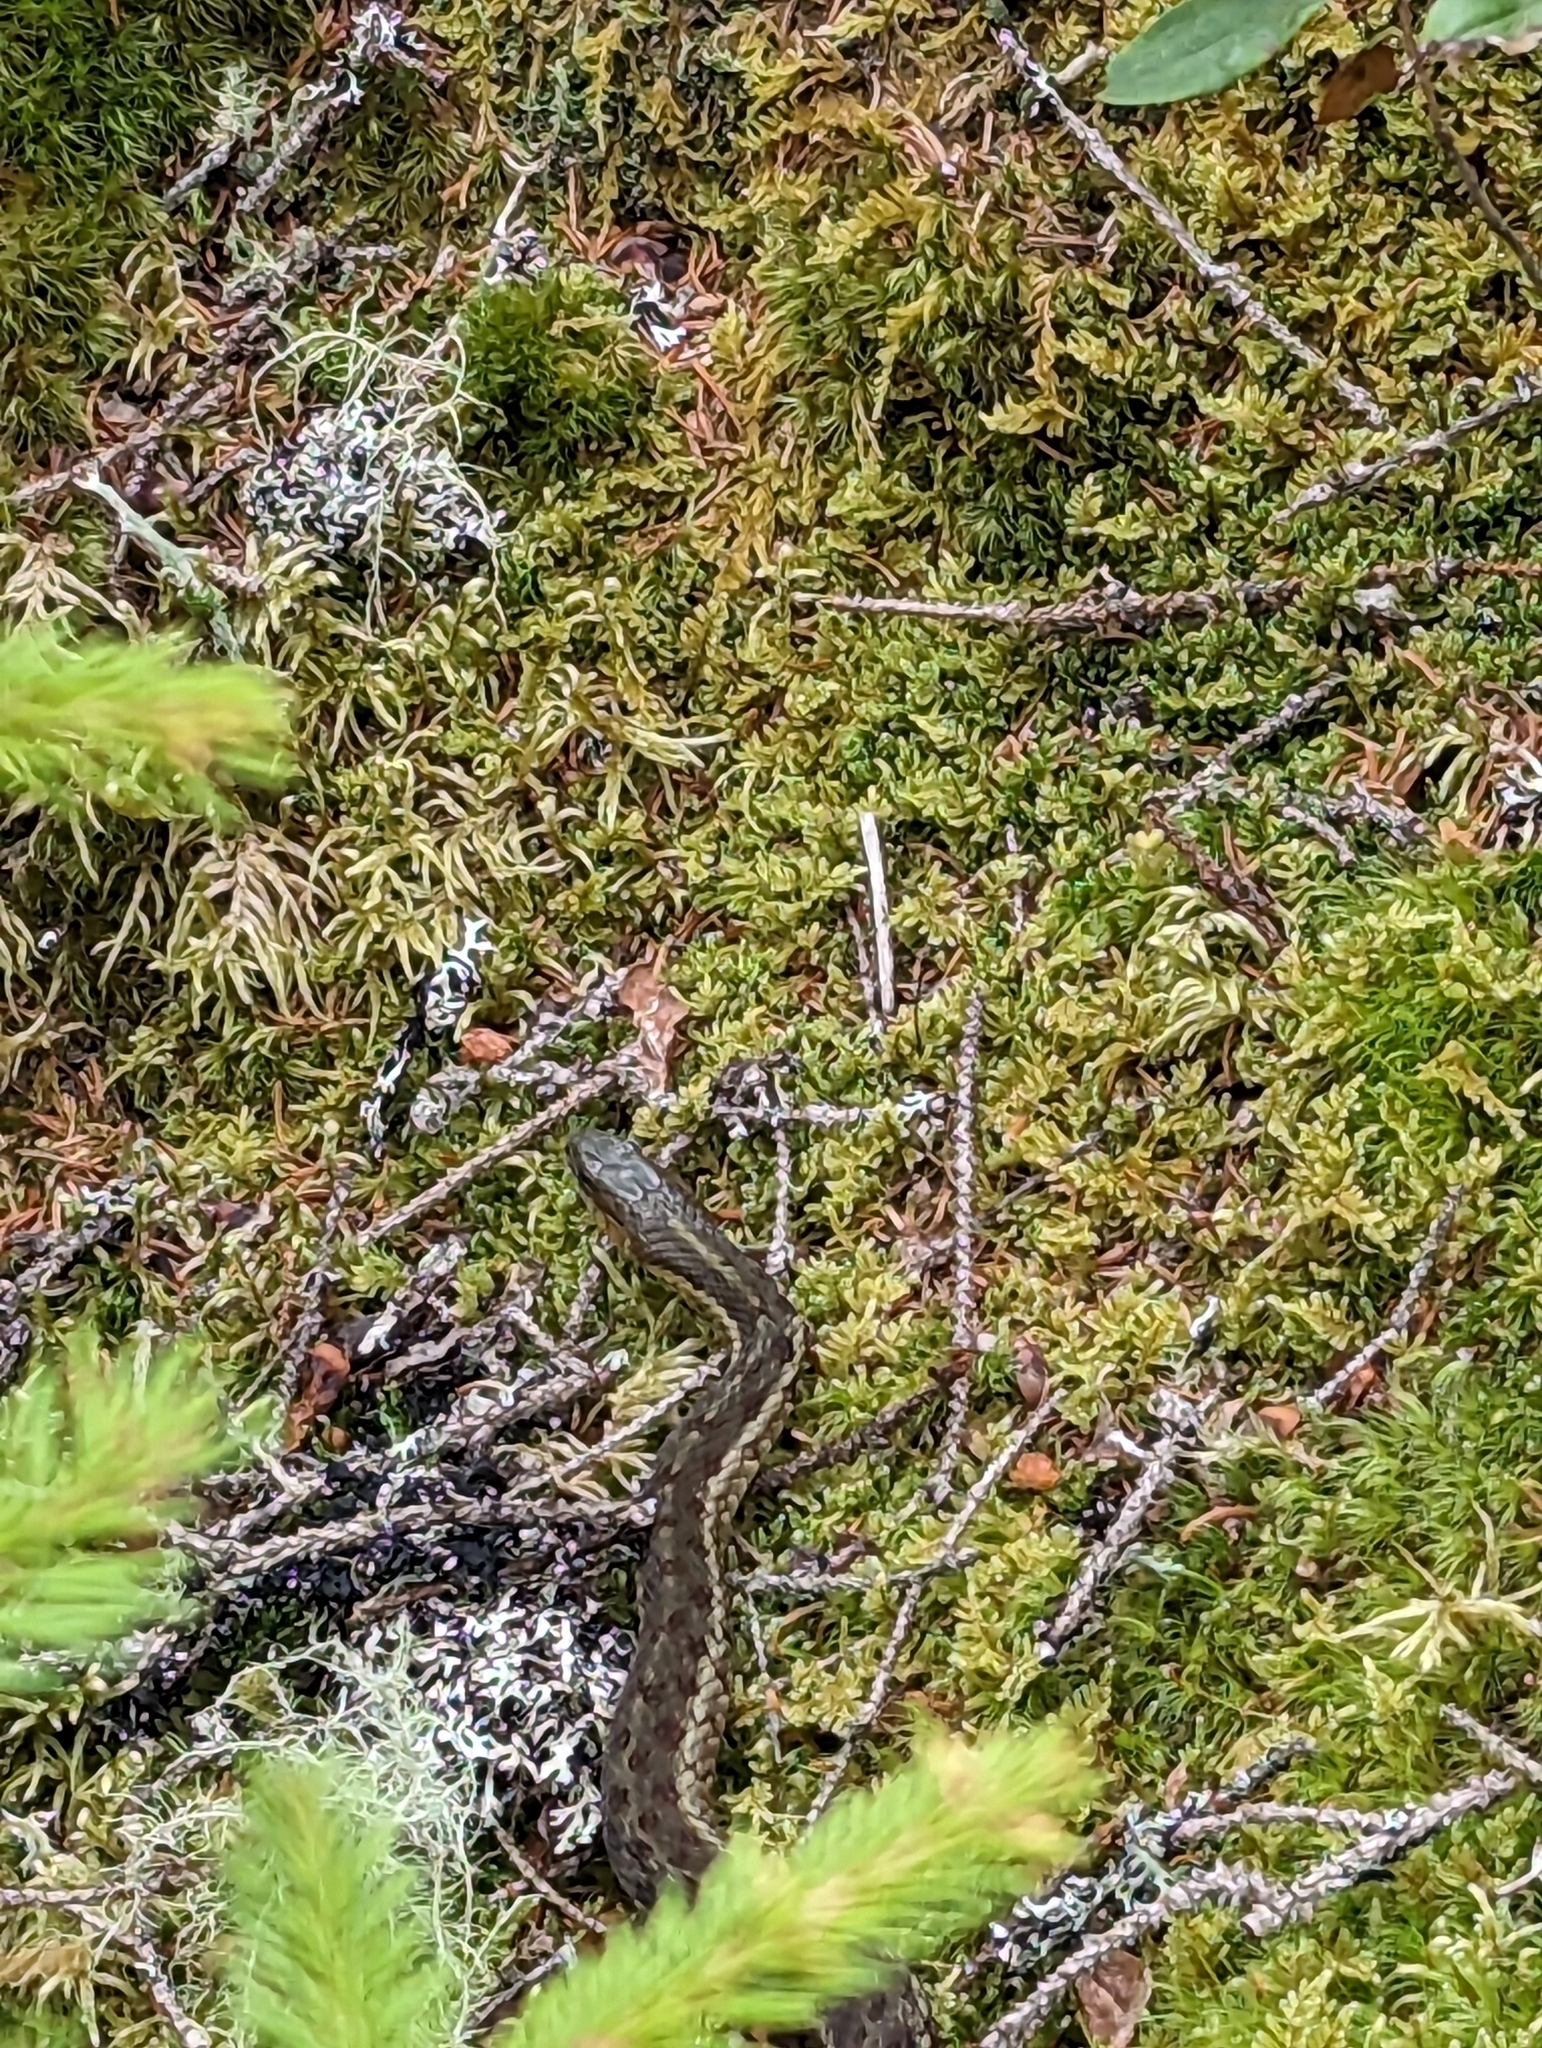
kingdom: Animalia
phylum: Chordata
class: Squamata
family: Colubridae
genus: Thamnophis
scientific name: Thamnophis sirtalis
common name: Common garter snake
